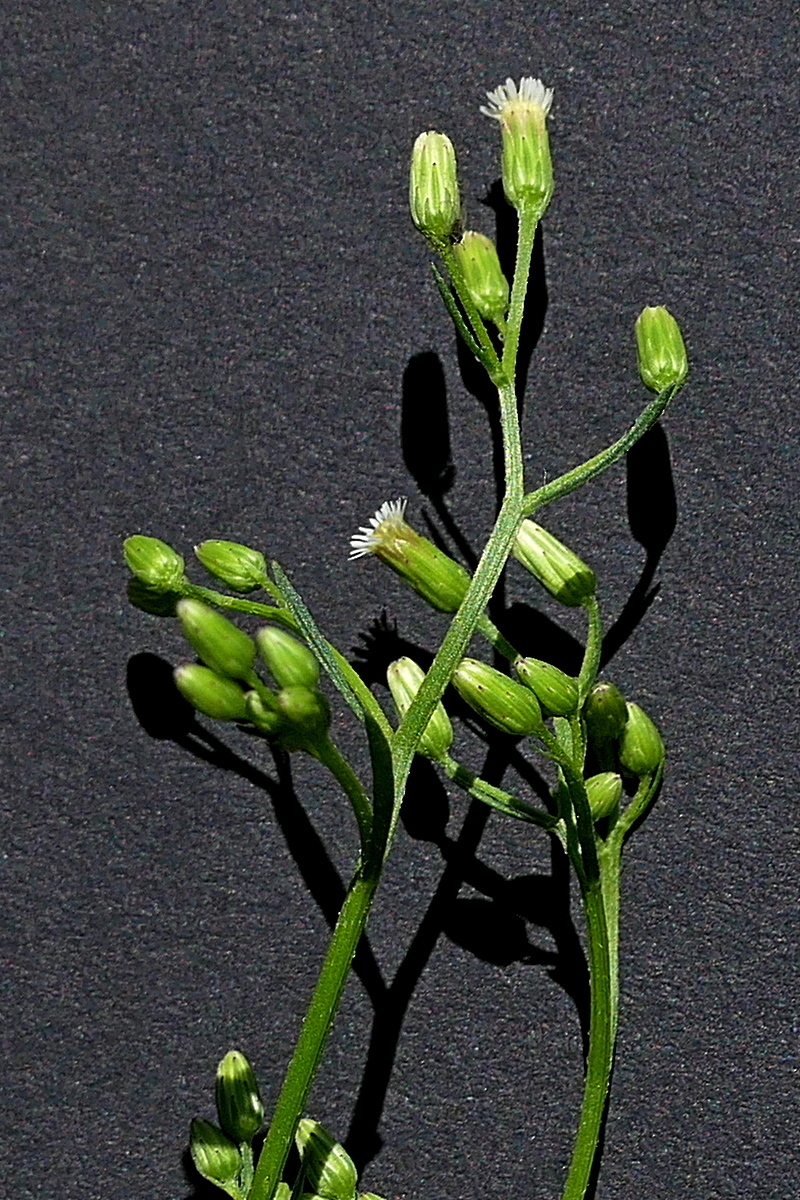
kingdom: Plantae
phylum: Tracheophyta
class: Magnoliopsida
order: Asterales
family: Asteraceae
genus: Erigeron
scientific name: Erigeron canadensis
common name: Canadian fleabane
